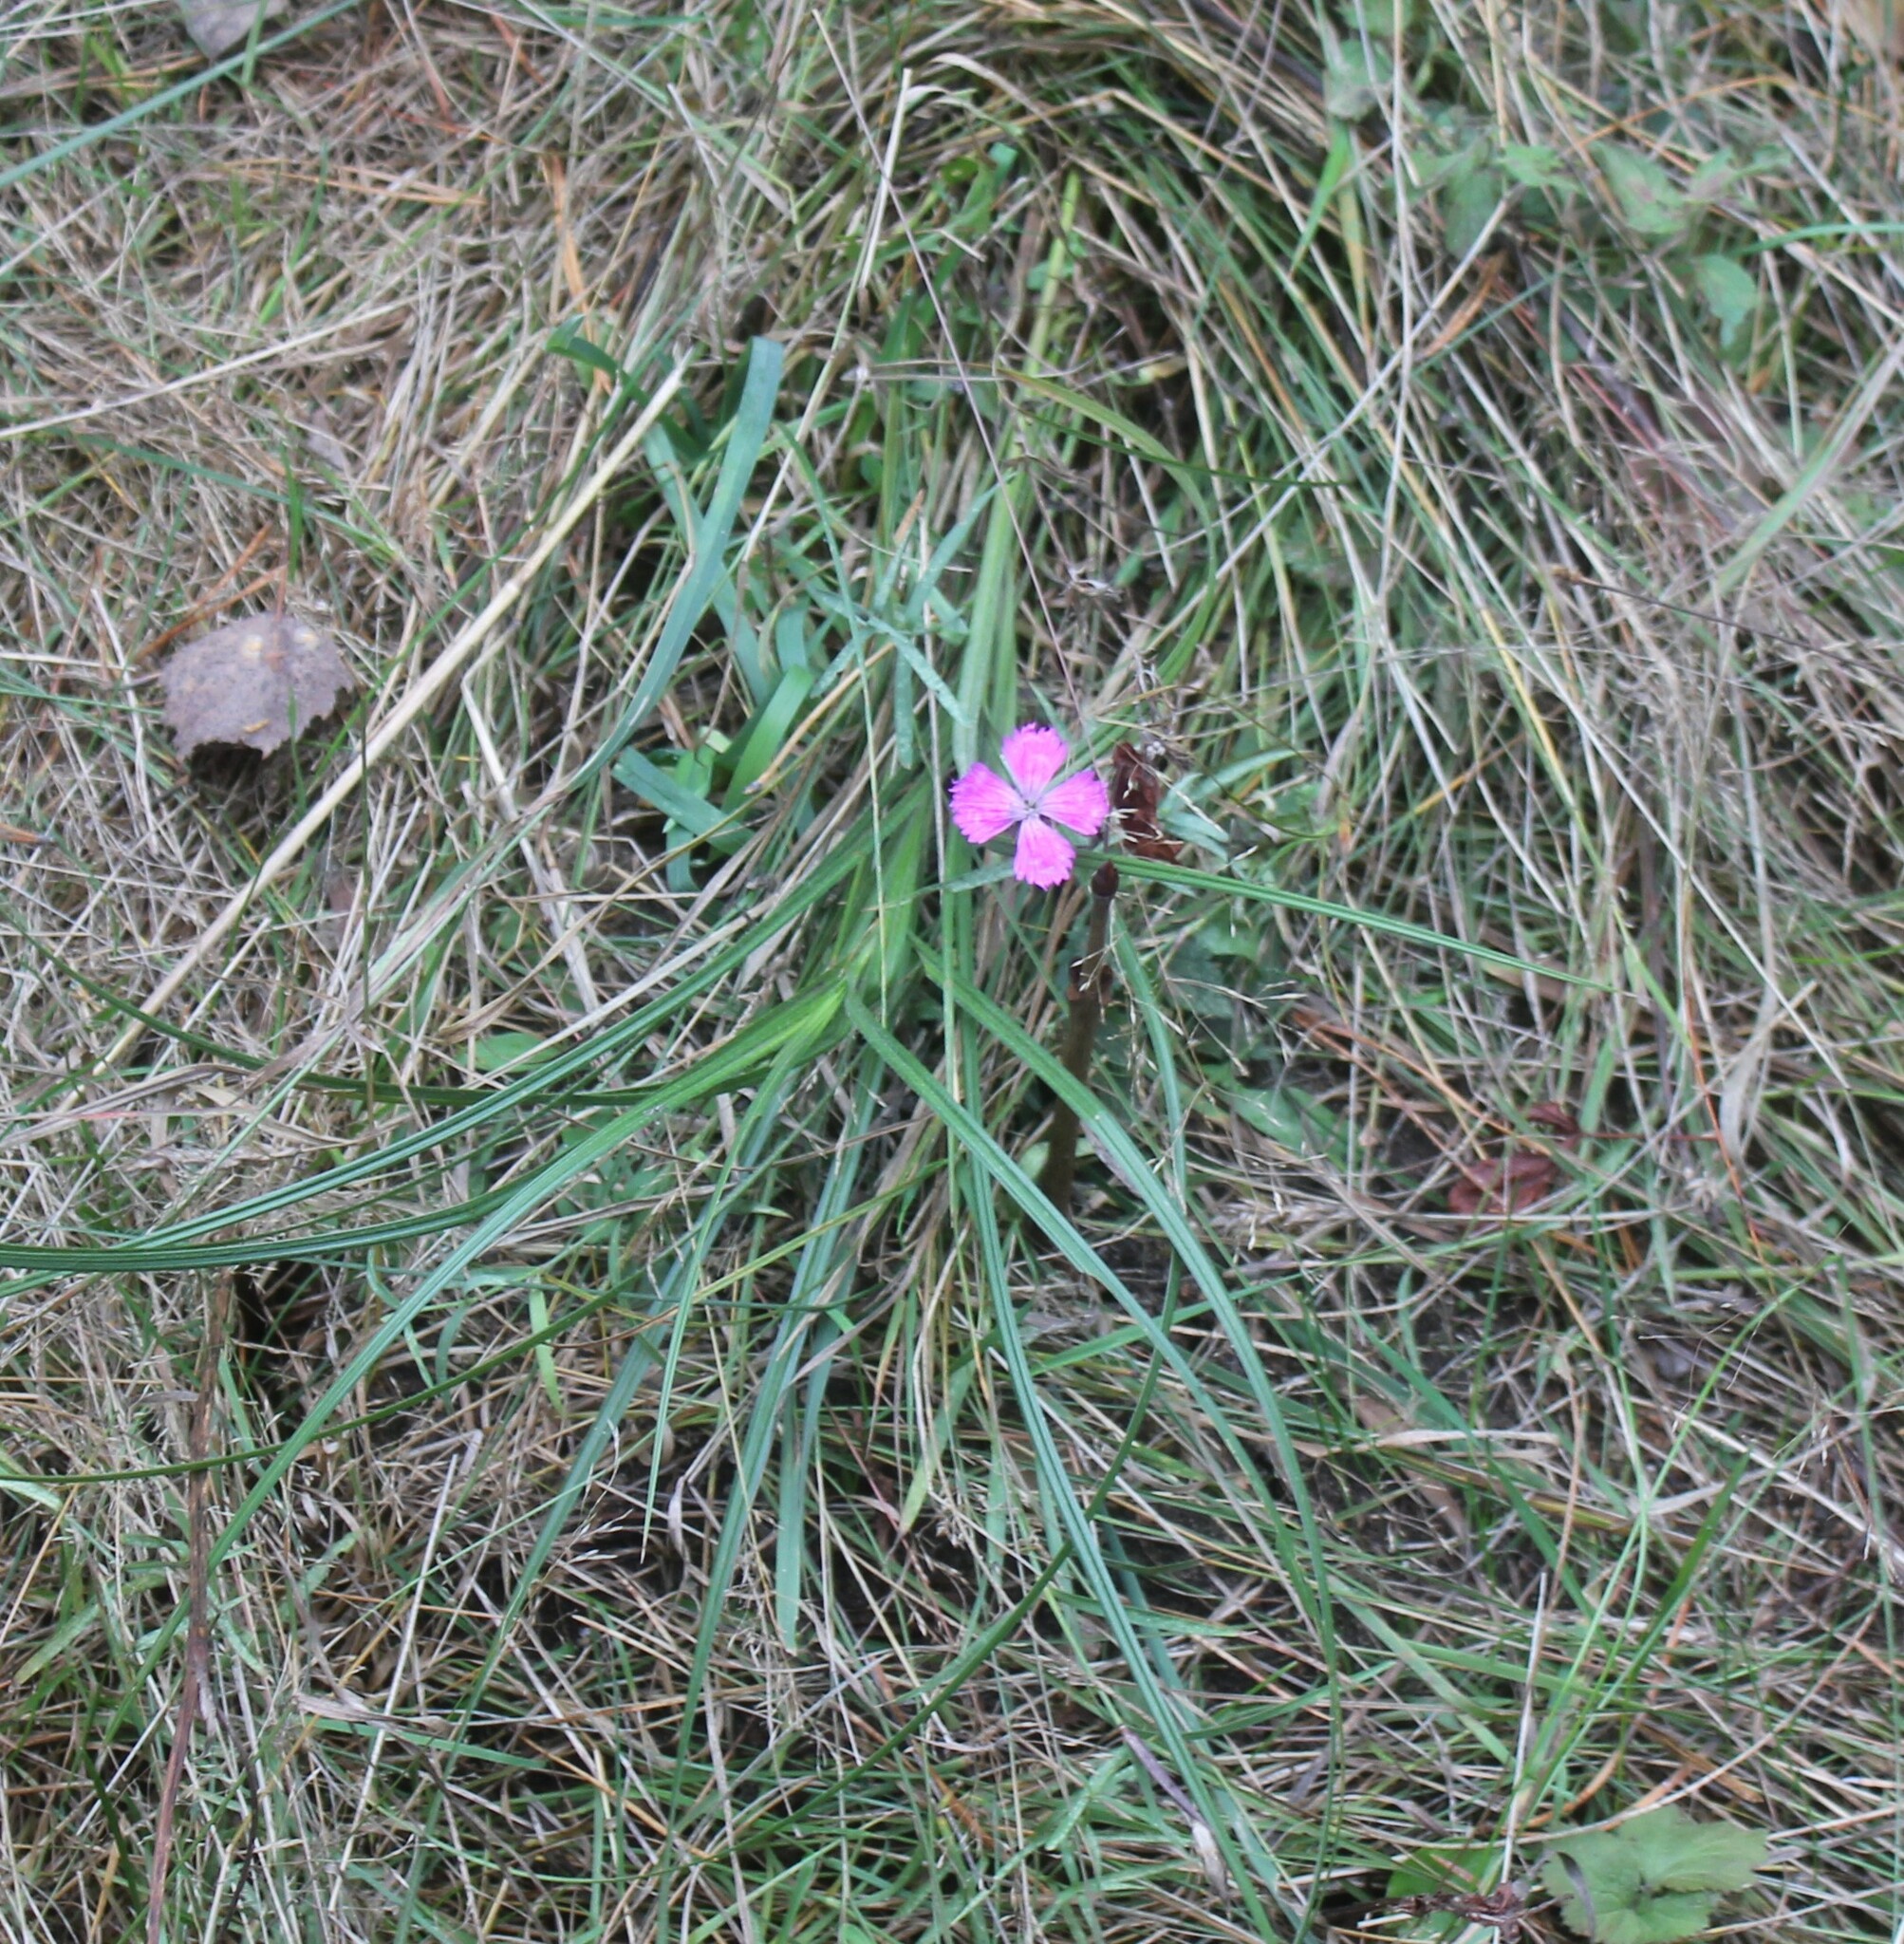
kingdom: Plantae
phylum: Tracheophyta
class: Magnoliopsida
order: Caryophyllales
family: Caryophyllaceae
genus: Dianthus
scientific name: Dianthus chinensis
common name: Rainbow pink
